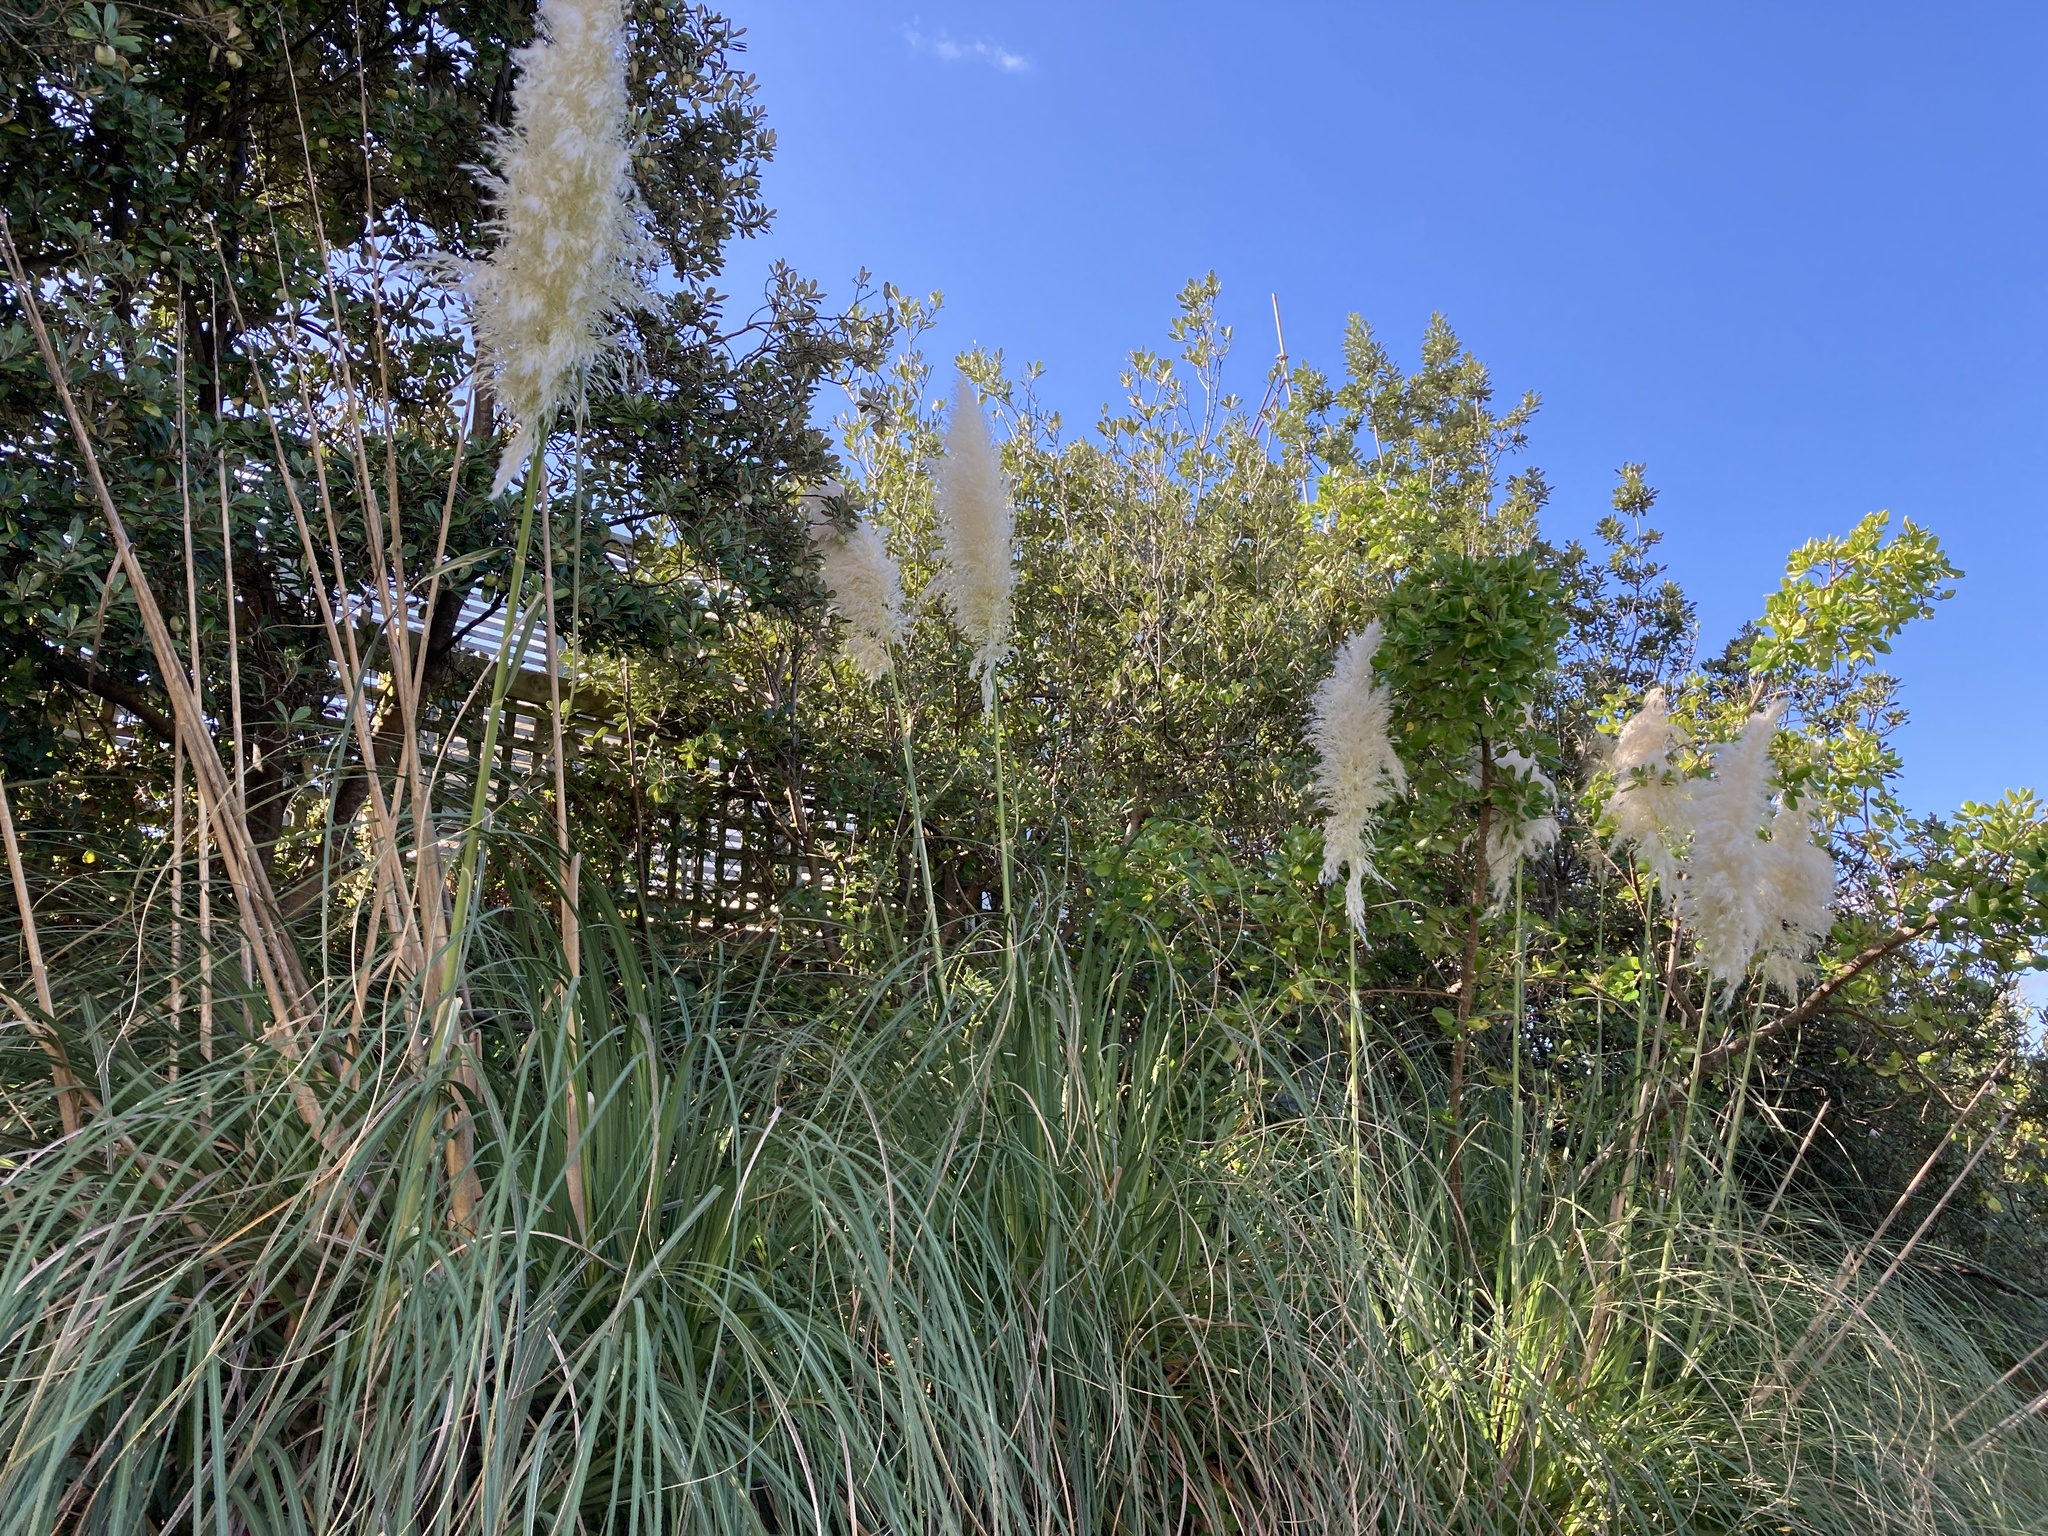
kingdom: Plantae
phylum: Tracheophyta
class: Liliopsida
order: Poales
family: Poaceae
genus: Cortaderia
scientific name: Cortaderia selloana
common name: Uruguayan pampas grass
